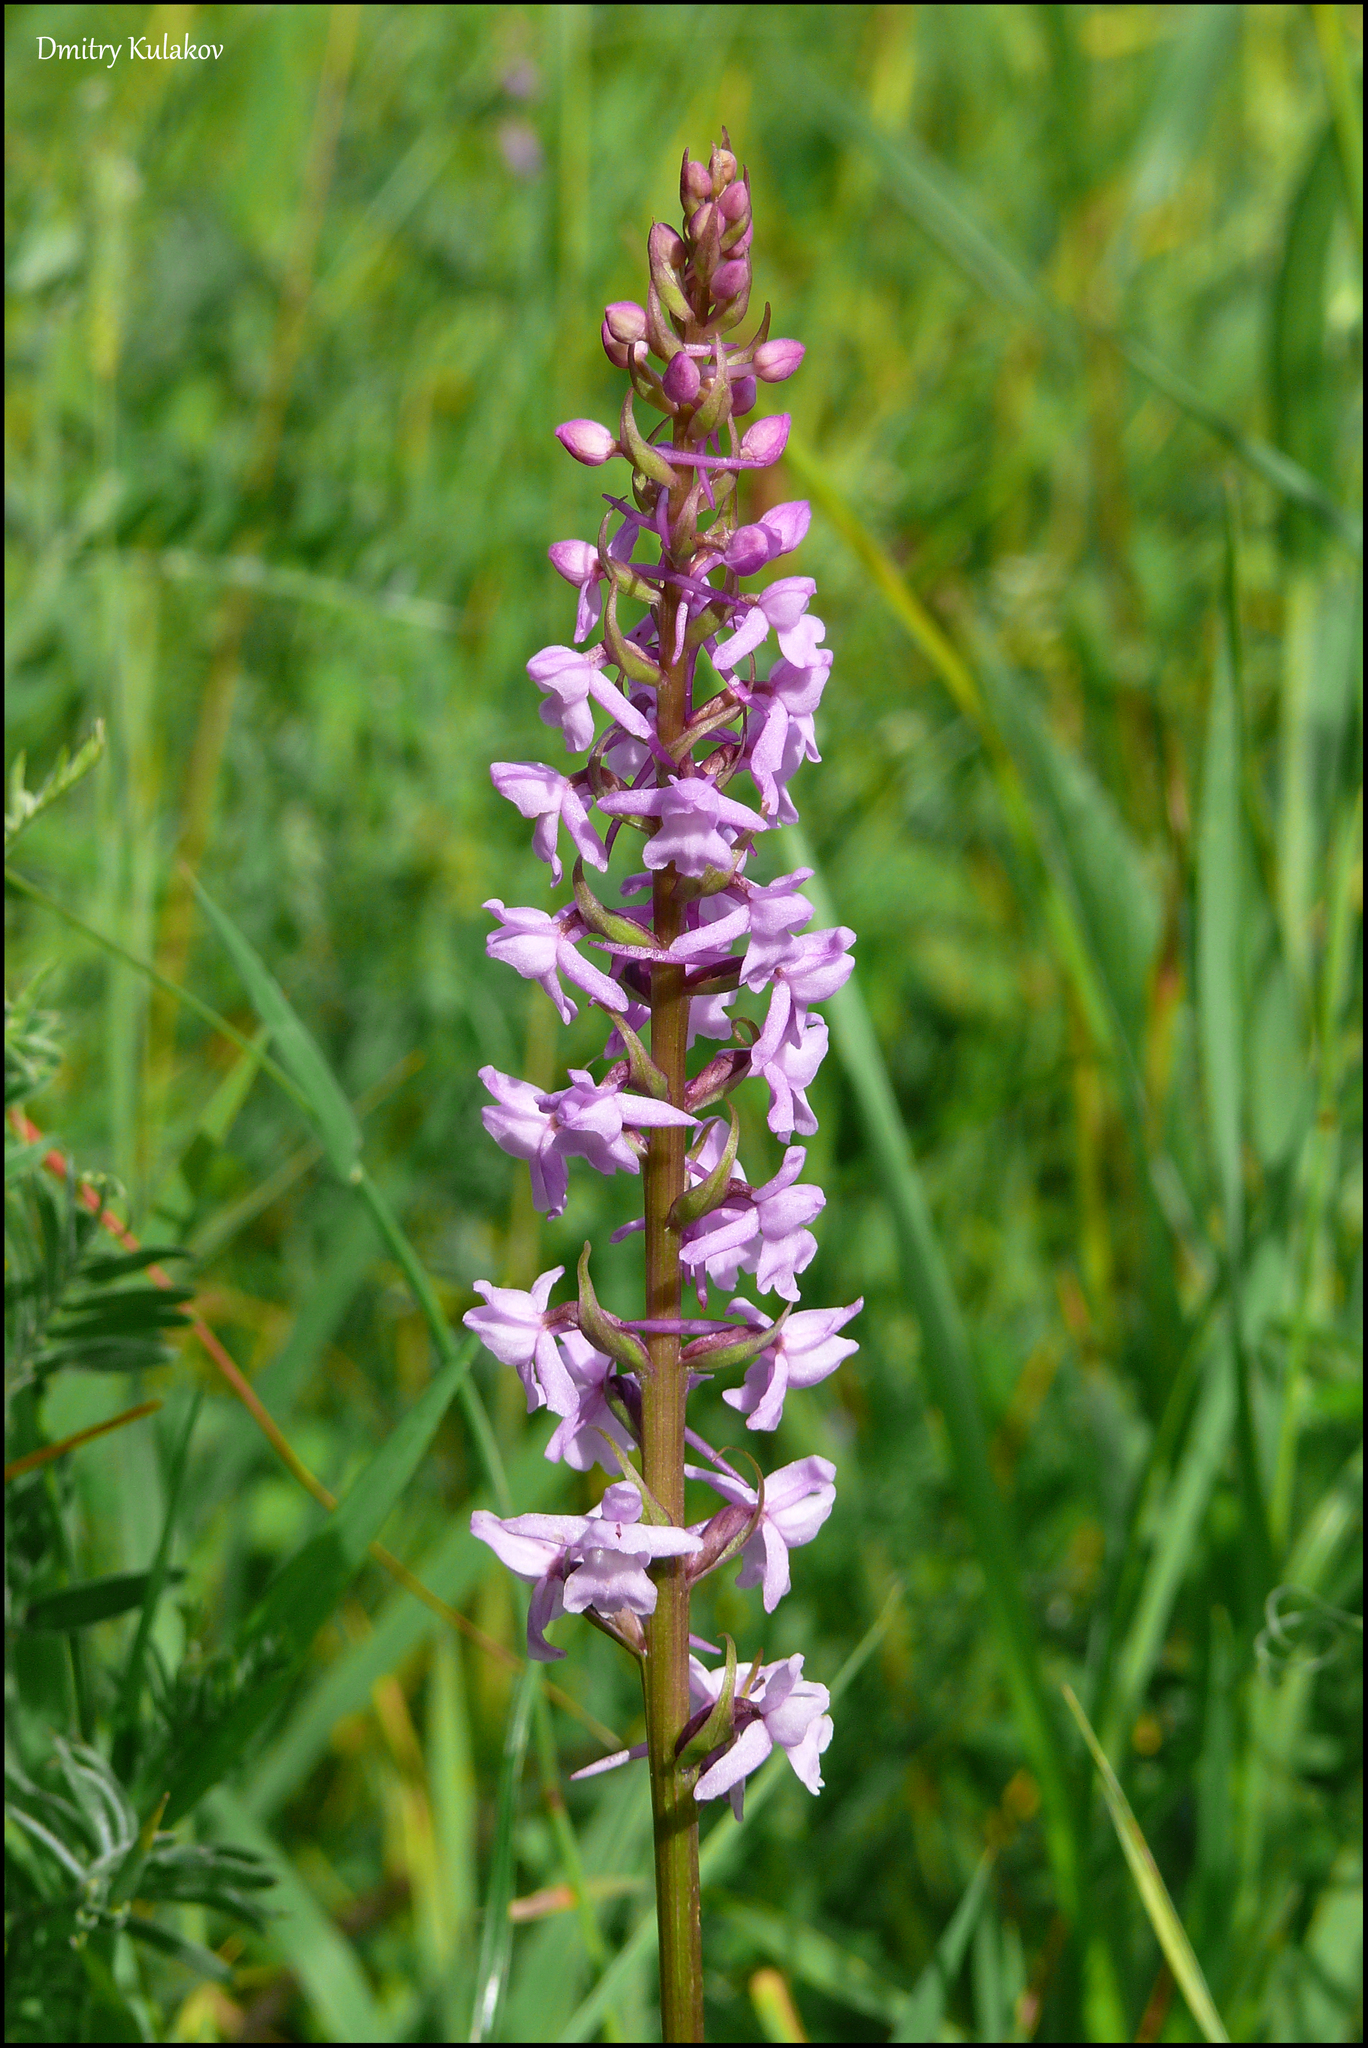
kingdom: Plantae
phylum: Tracheophyta
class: Liliopsida
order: Asparagales
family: Orchidaceae
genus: Gymnadenia
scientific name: Gymnadenia conopsea
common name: Fragrant orchid
